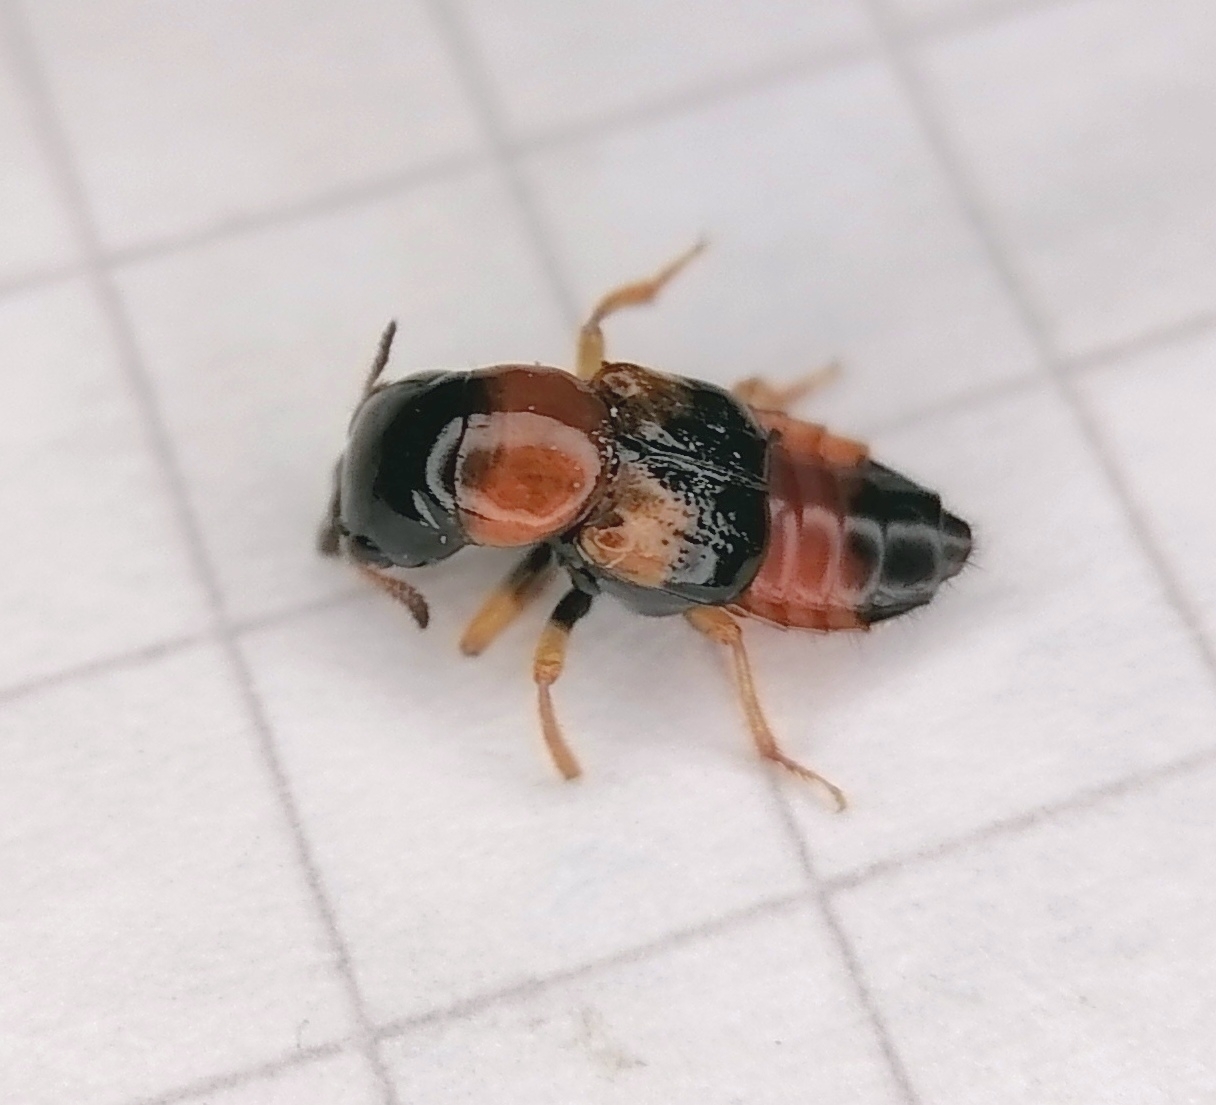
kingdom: Animalia
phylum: Arthropoda
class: Insecta
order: Coleoptera
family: Staphylinidae
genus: Oxyporus
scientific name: Oxyporus rufus
